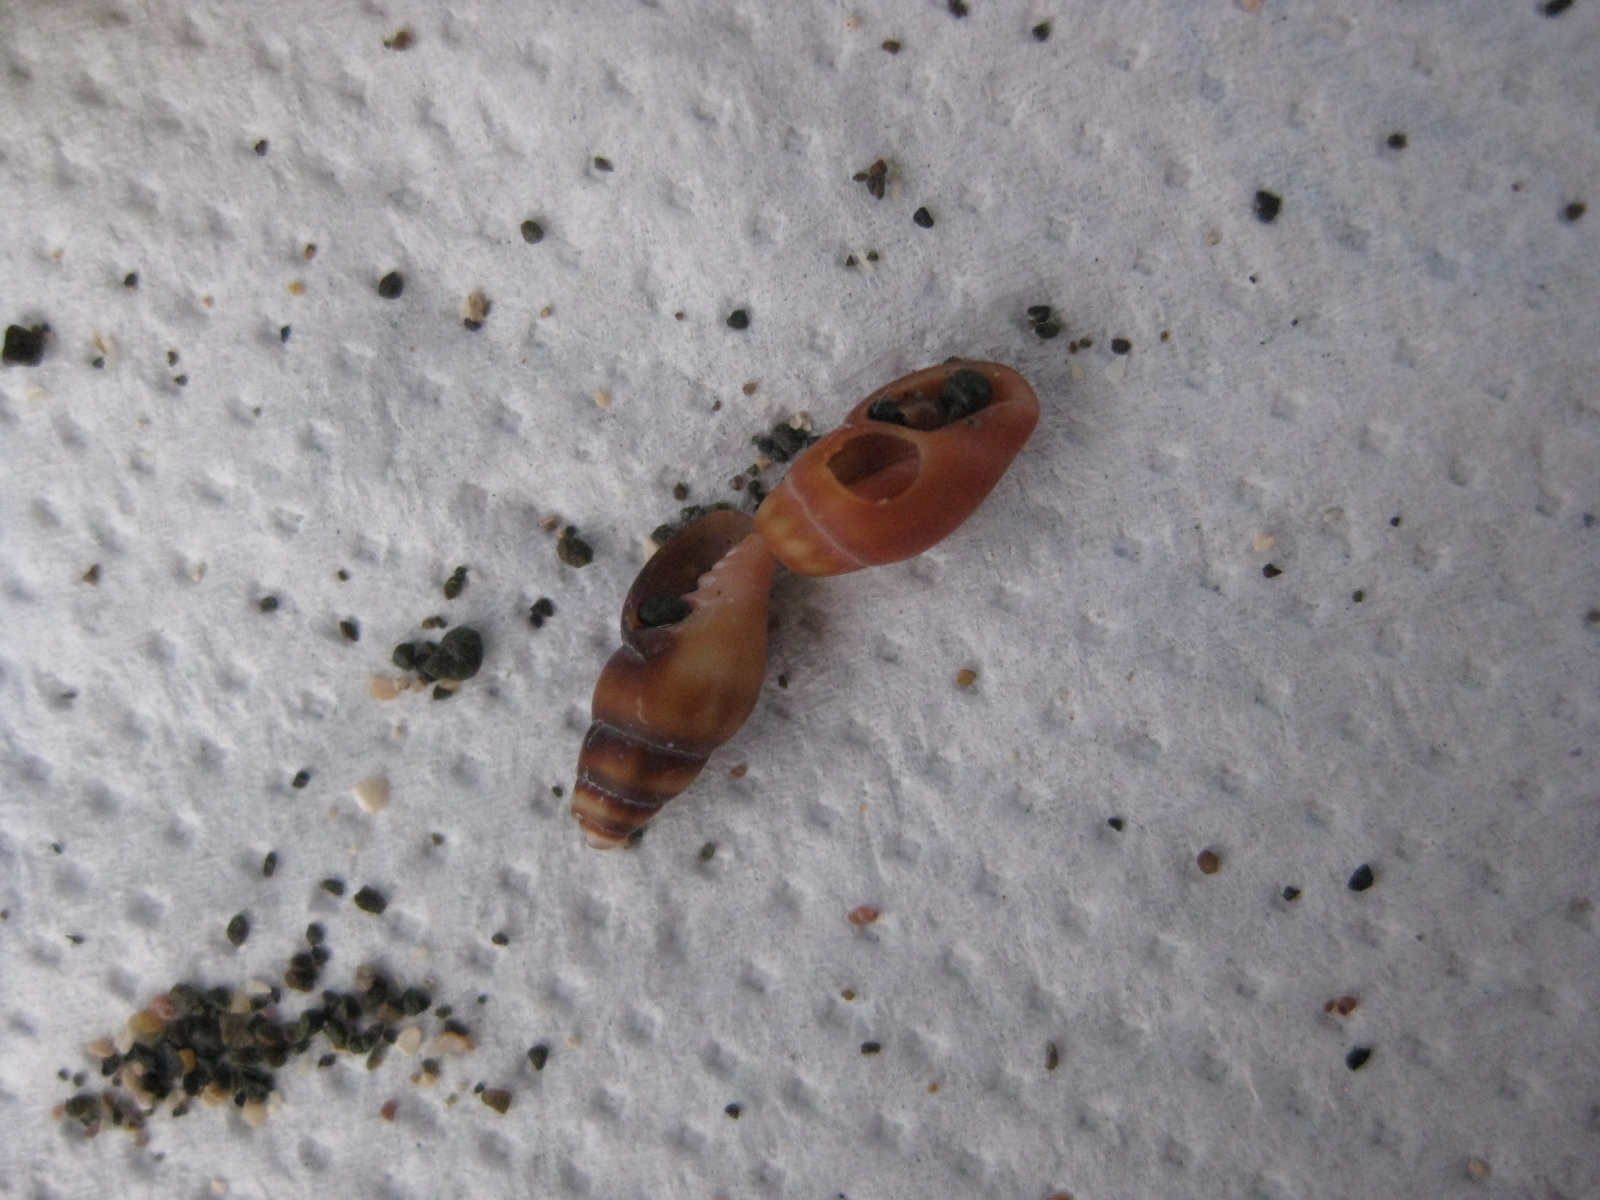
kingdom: Animalia
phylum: Mollusca
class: Gastropoda
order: Neogastropoda
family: Costellariidae
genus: Austromitra
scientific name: Austromitra rubiginosa
